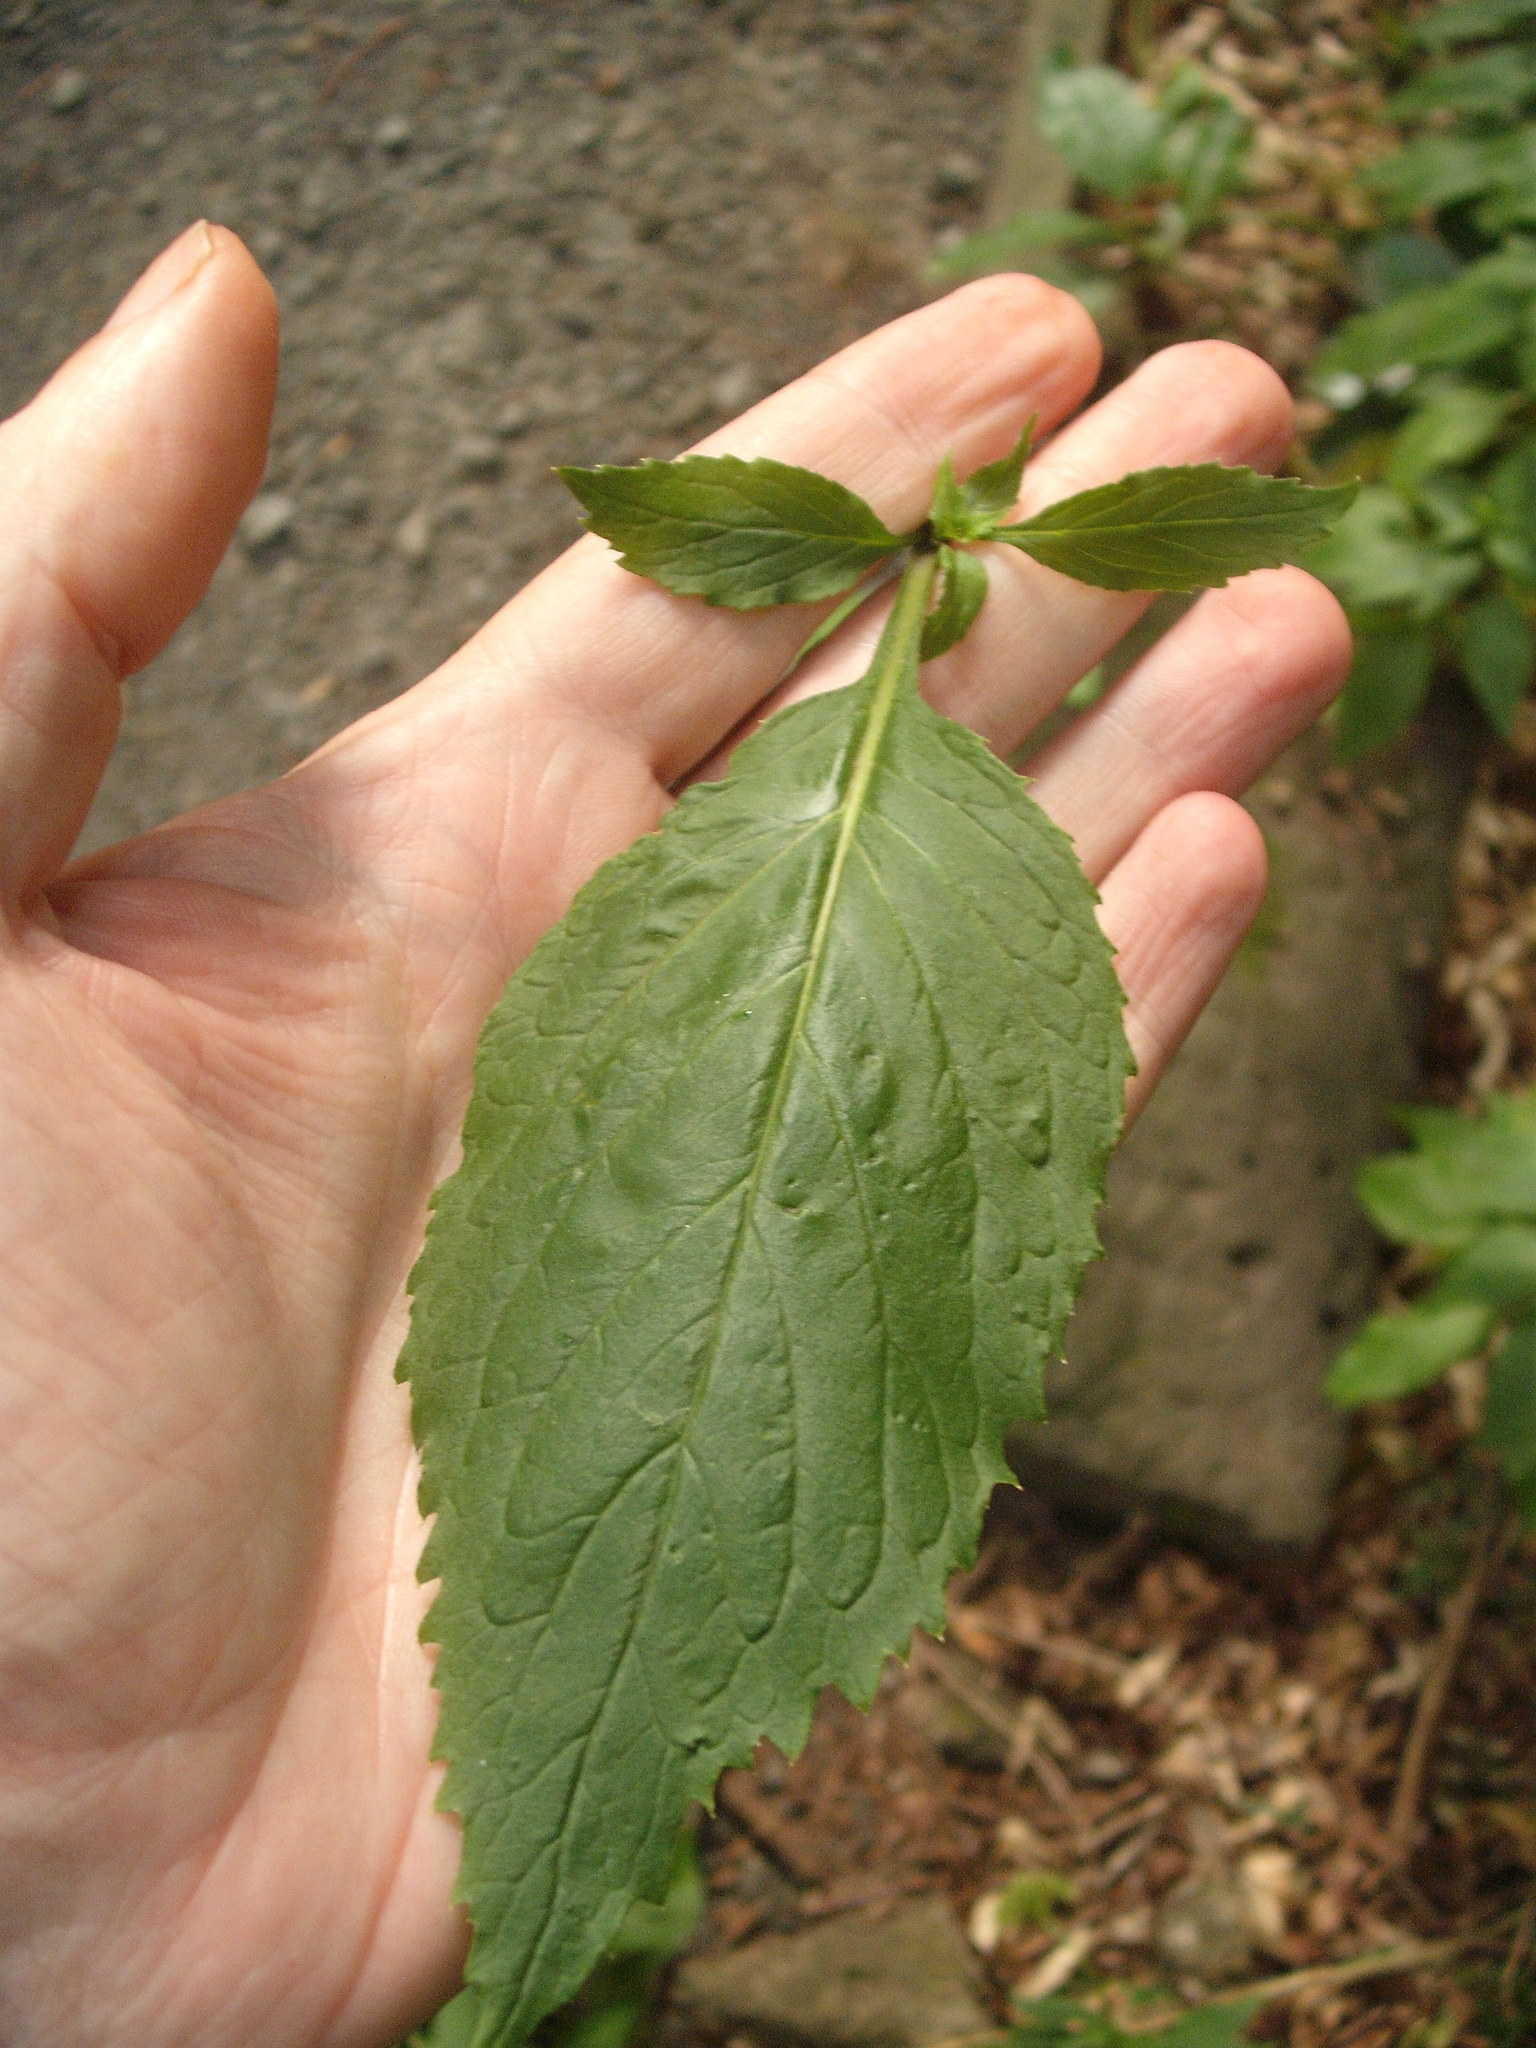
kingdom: Plantae
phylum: Tracheophyta
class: Magnoliopsida
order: Asterales
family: Campanulaceae
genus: Trachelium
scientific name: Trachelium caeruleum
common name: Throatwort
